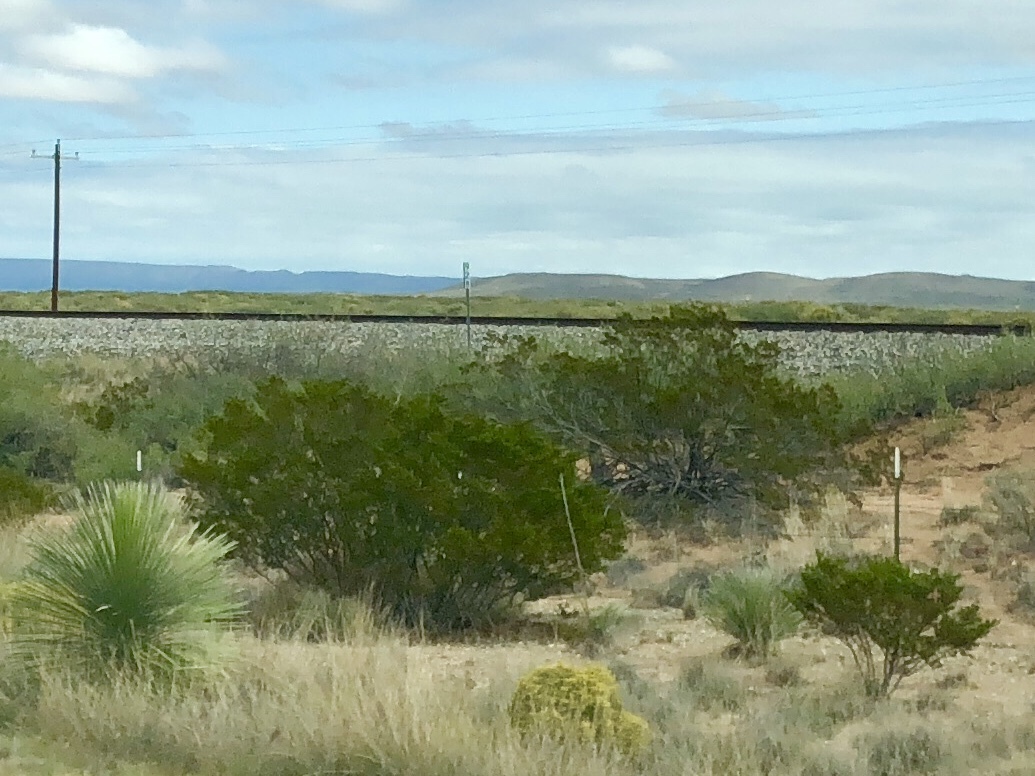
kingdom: Plantae
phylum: Tracheophyta
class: Magnoliopsida
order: Zygophyllales
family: Zygophyllaceae
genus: Larrea
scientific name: Larrea tridentata
